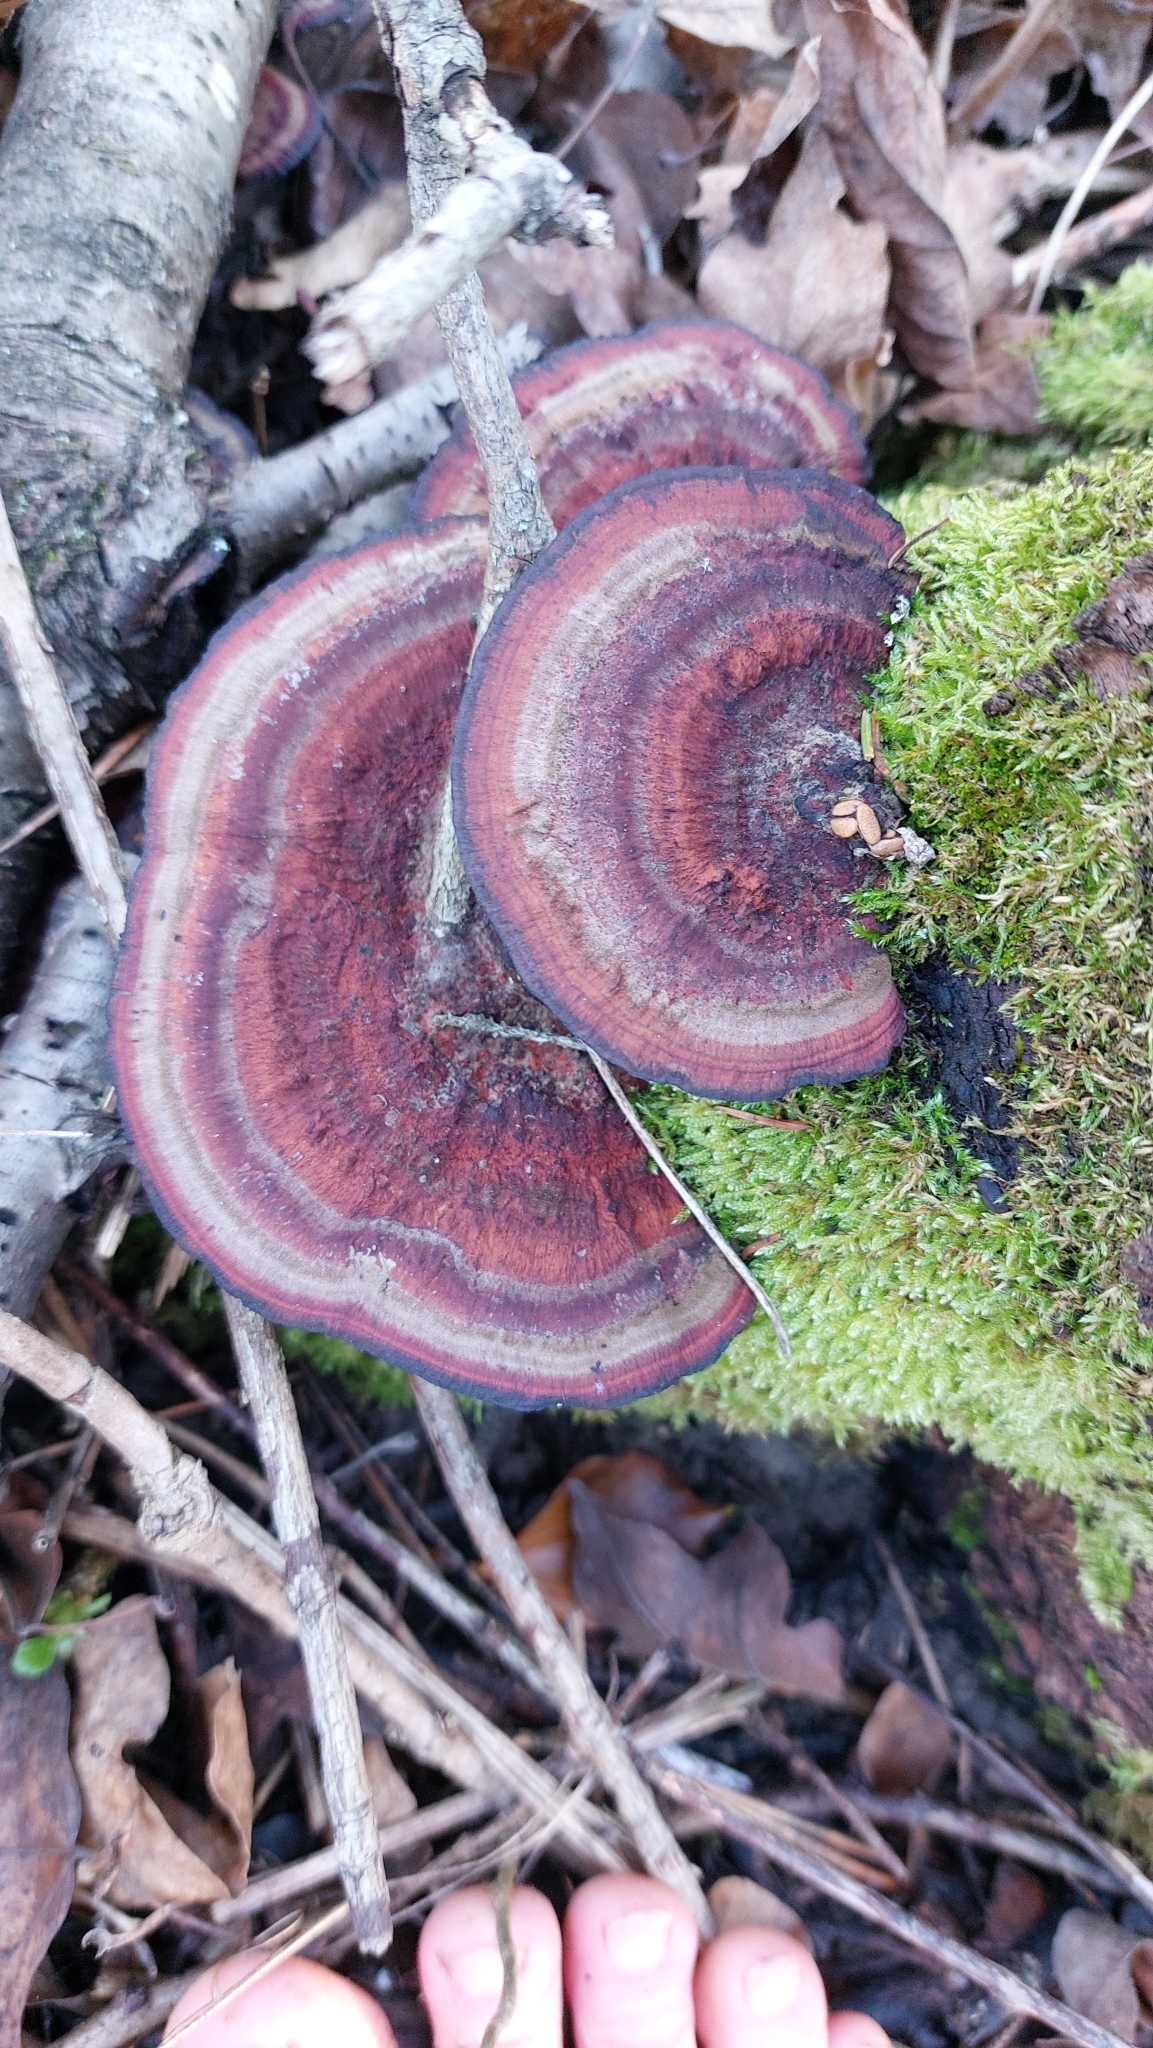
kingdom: Fungi
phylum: Basidiomycota
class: Agaricomycetes
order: Polyporales
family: Polyporaceae
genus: Daedaleopsis
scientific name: Daedaleopsis tricolor
